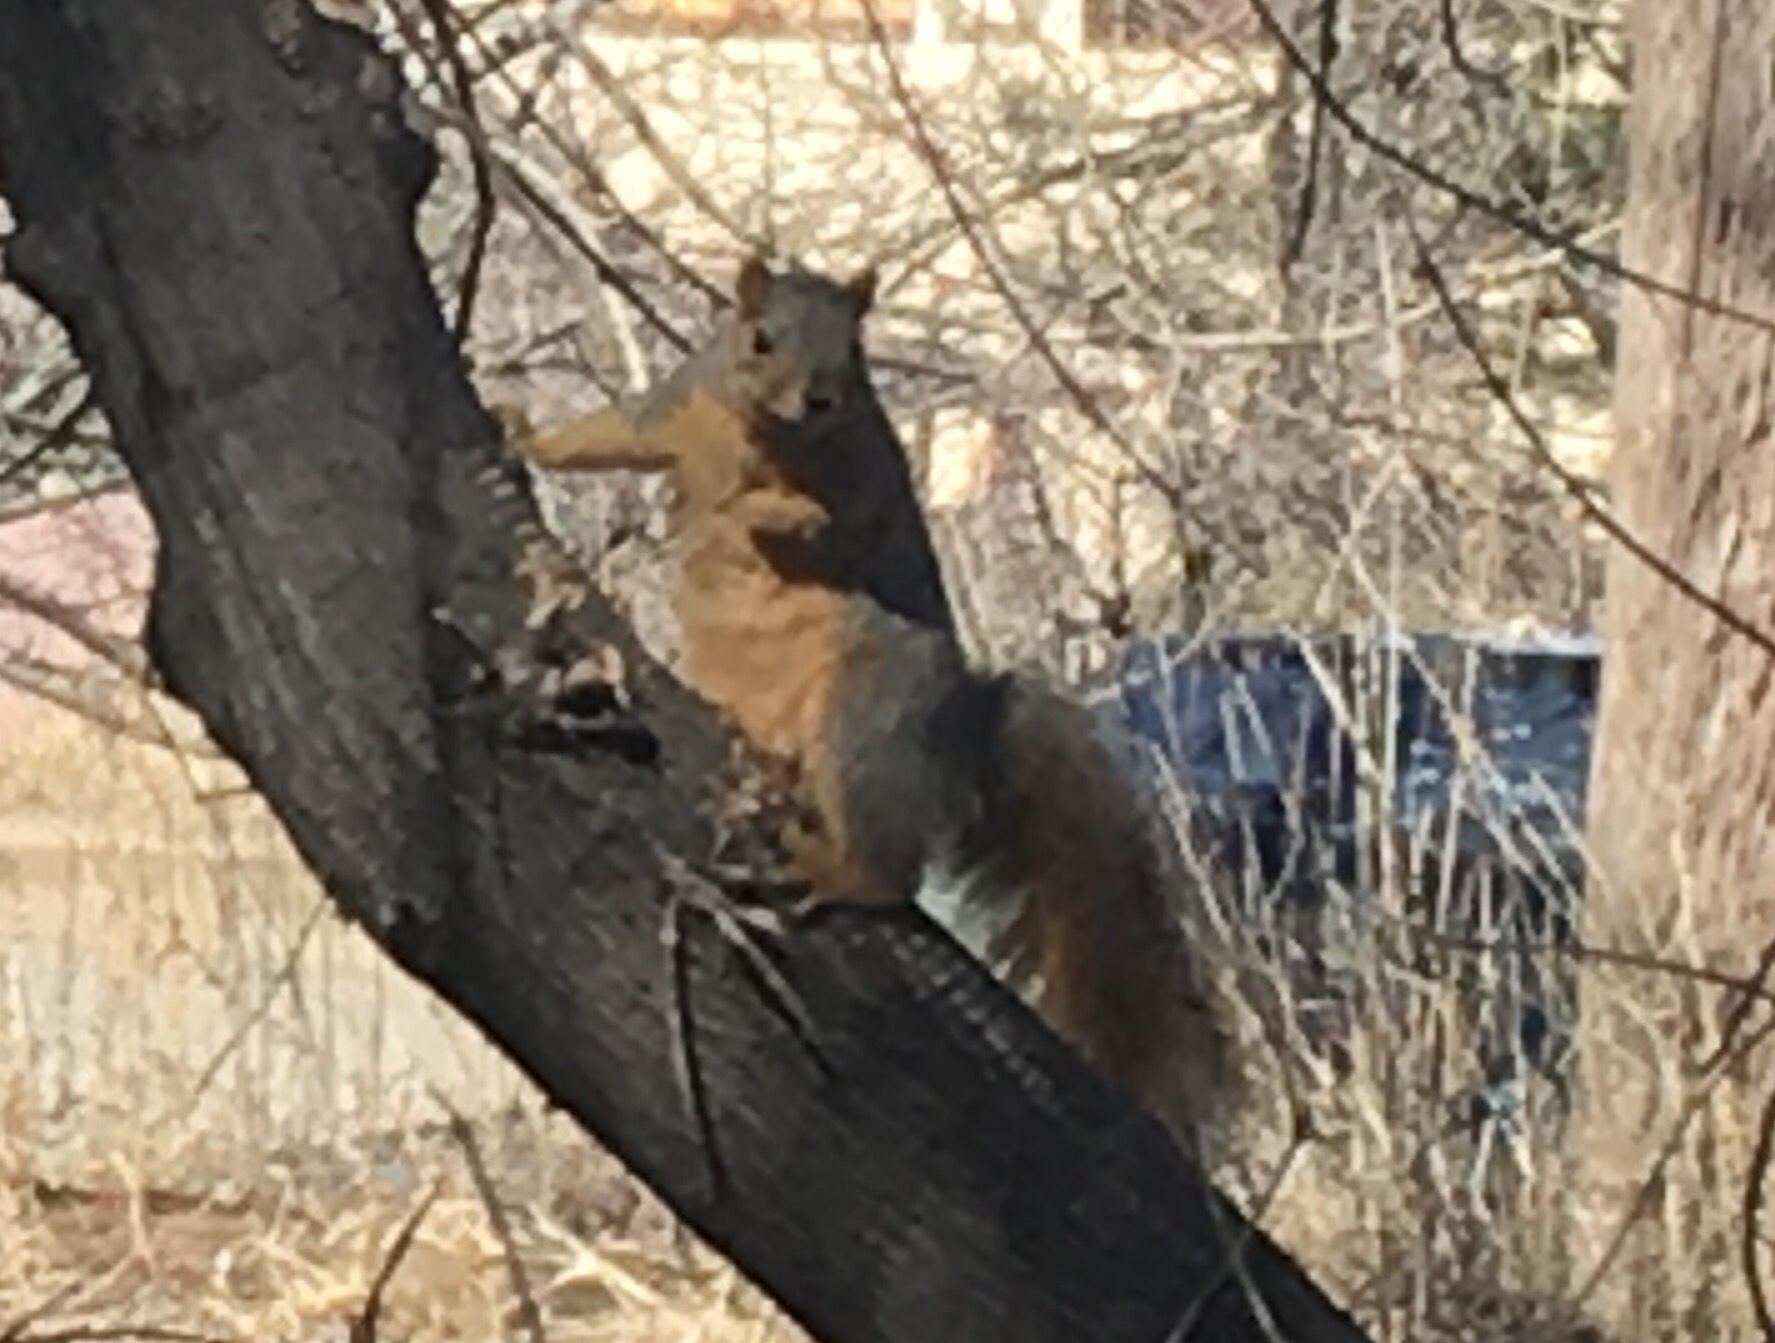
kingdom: Animalia
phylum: Chordata
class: Mammalia
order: Rodentia
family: Sciuridae
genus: Sciurus
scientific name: Sciurus niger
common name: Fox squirrel
